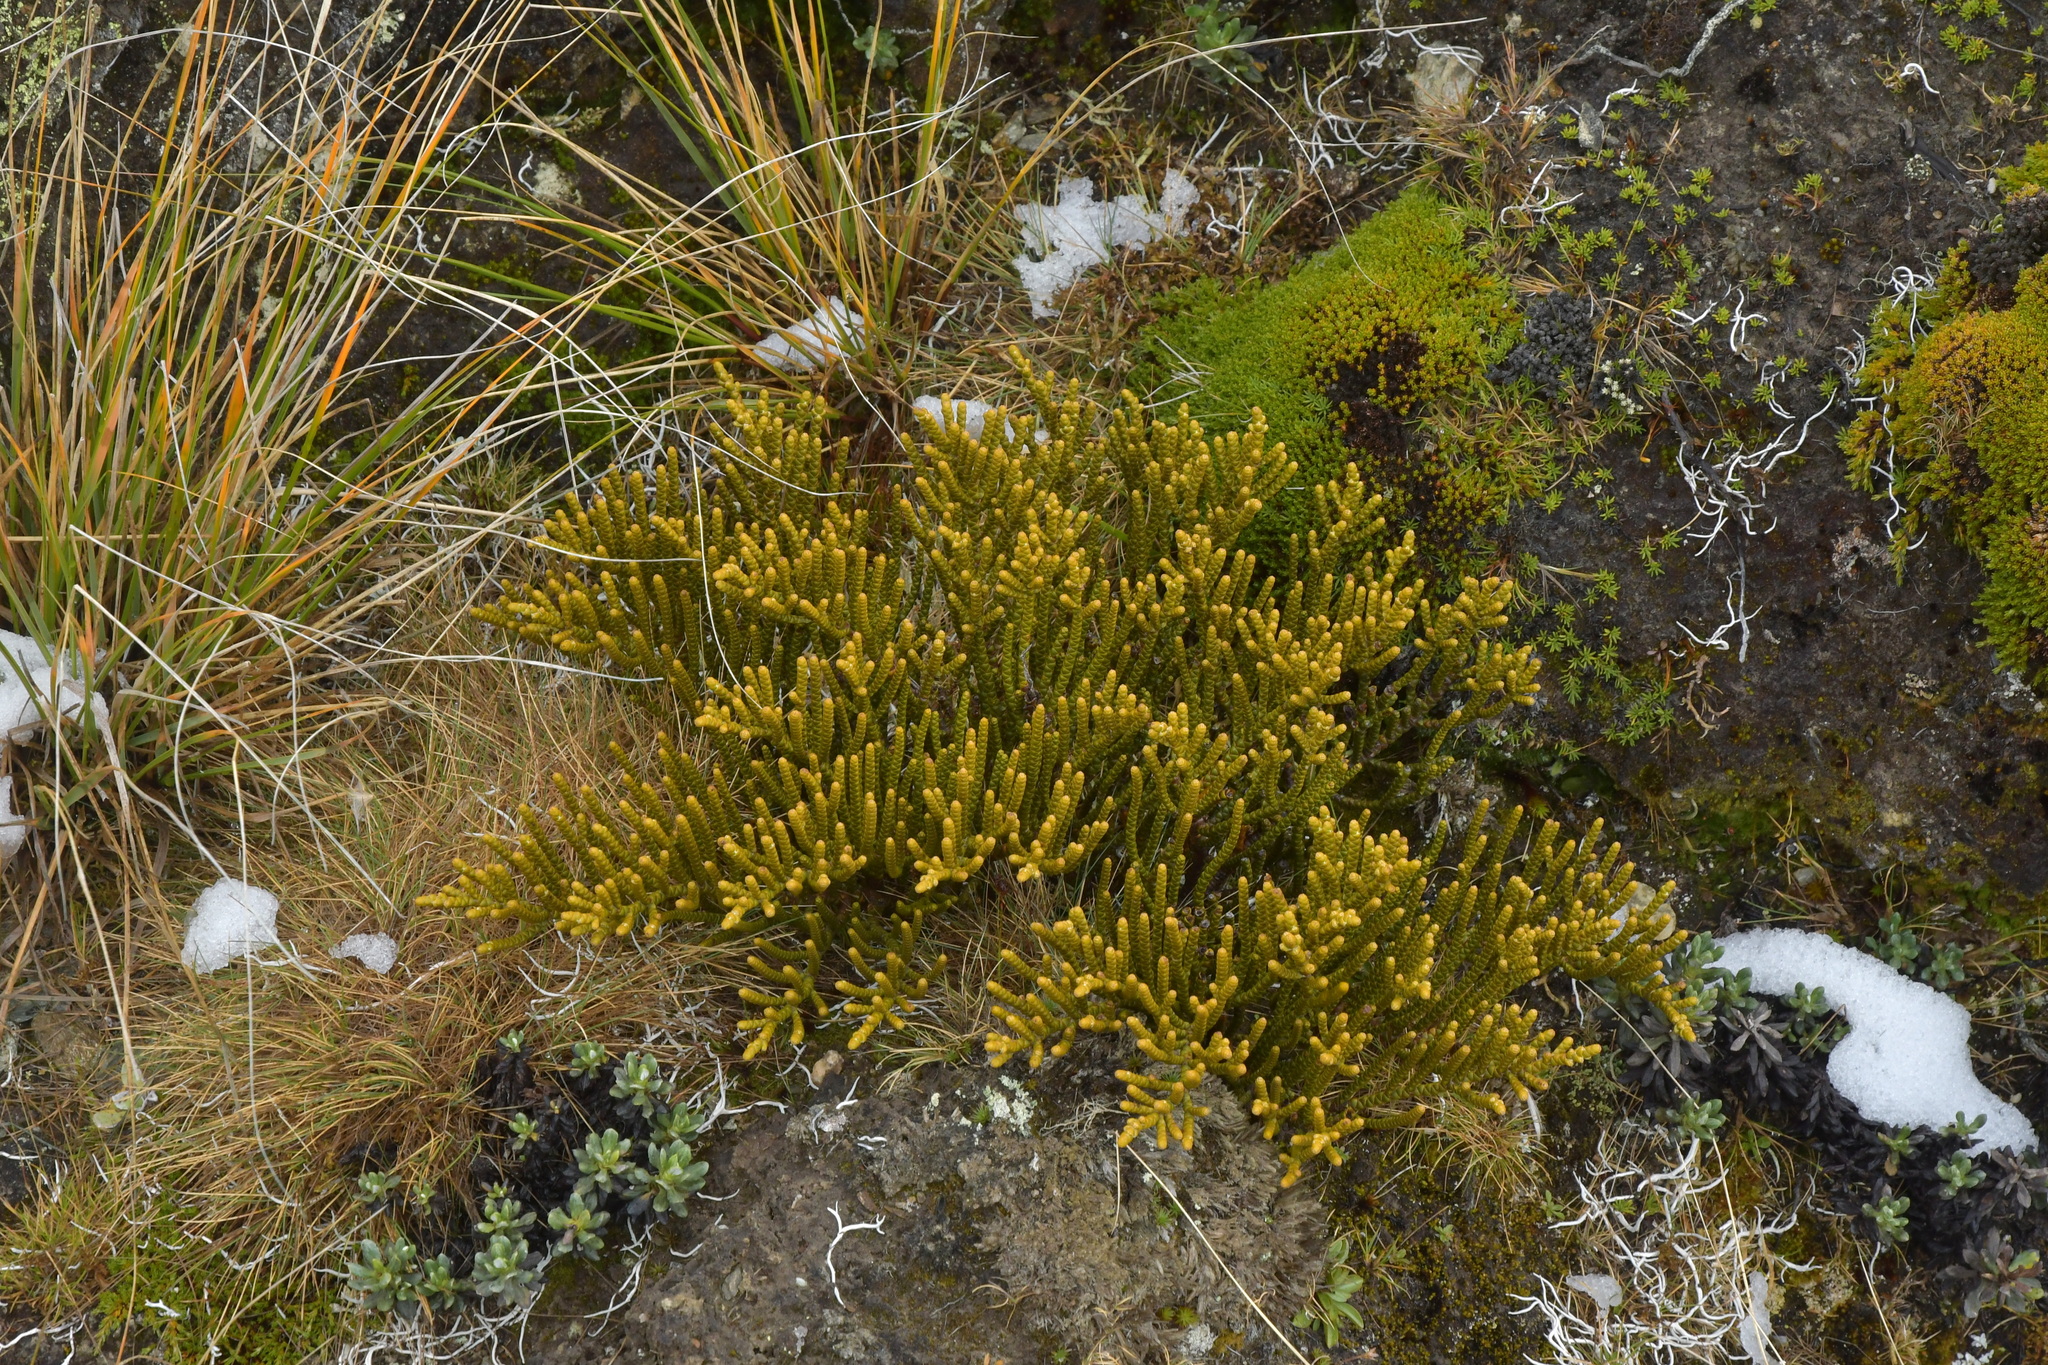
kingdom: Plantae
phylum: Tracheophyta
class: Magnoliopsida
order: Lamiales
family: Plantaginaceae
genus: Veronica
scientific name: Veronica poppelwellii
